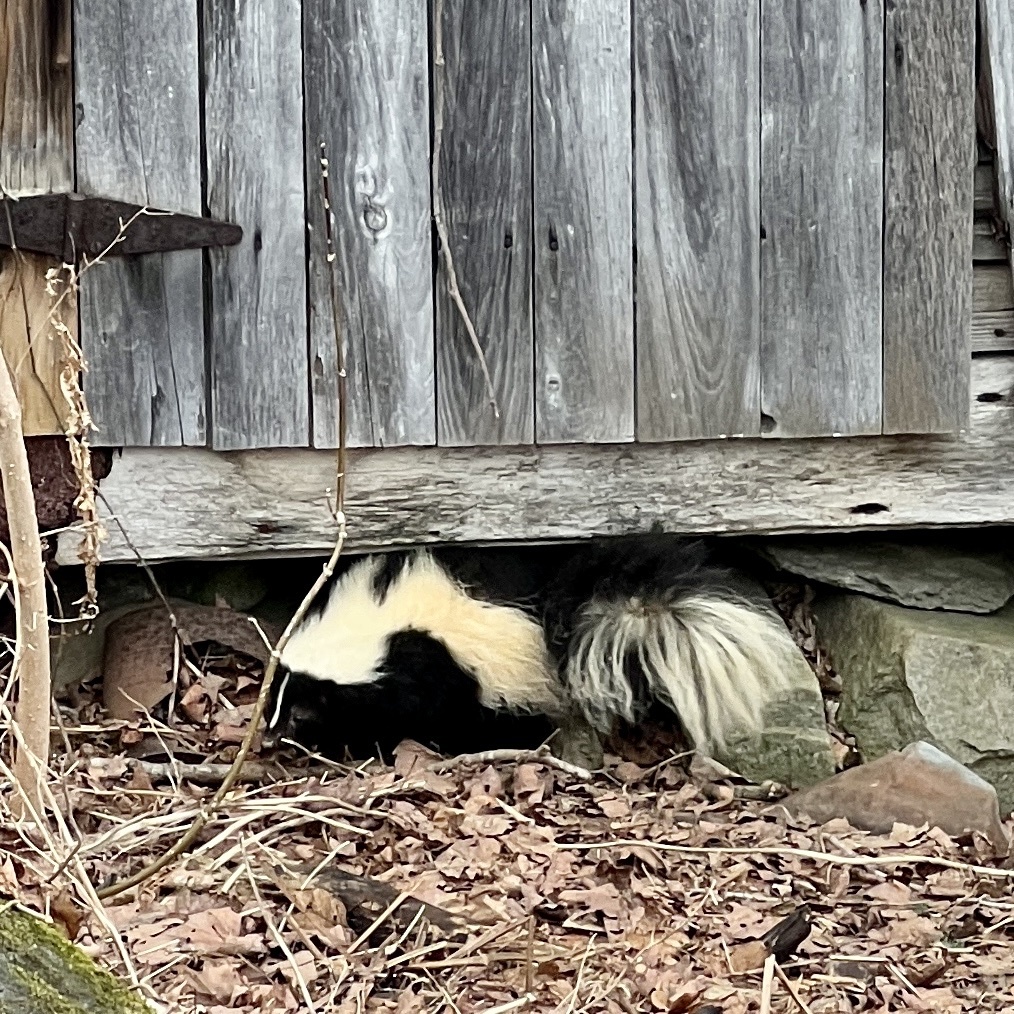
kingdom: Animalia
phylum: Chordata
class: Mammalia
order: Carnivora
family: Mephitidae
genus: Mephitis
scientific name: Mephitis mephitis
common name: Striped skunk
